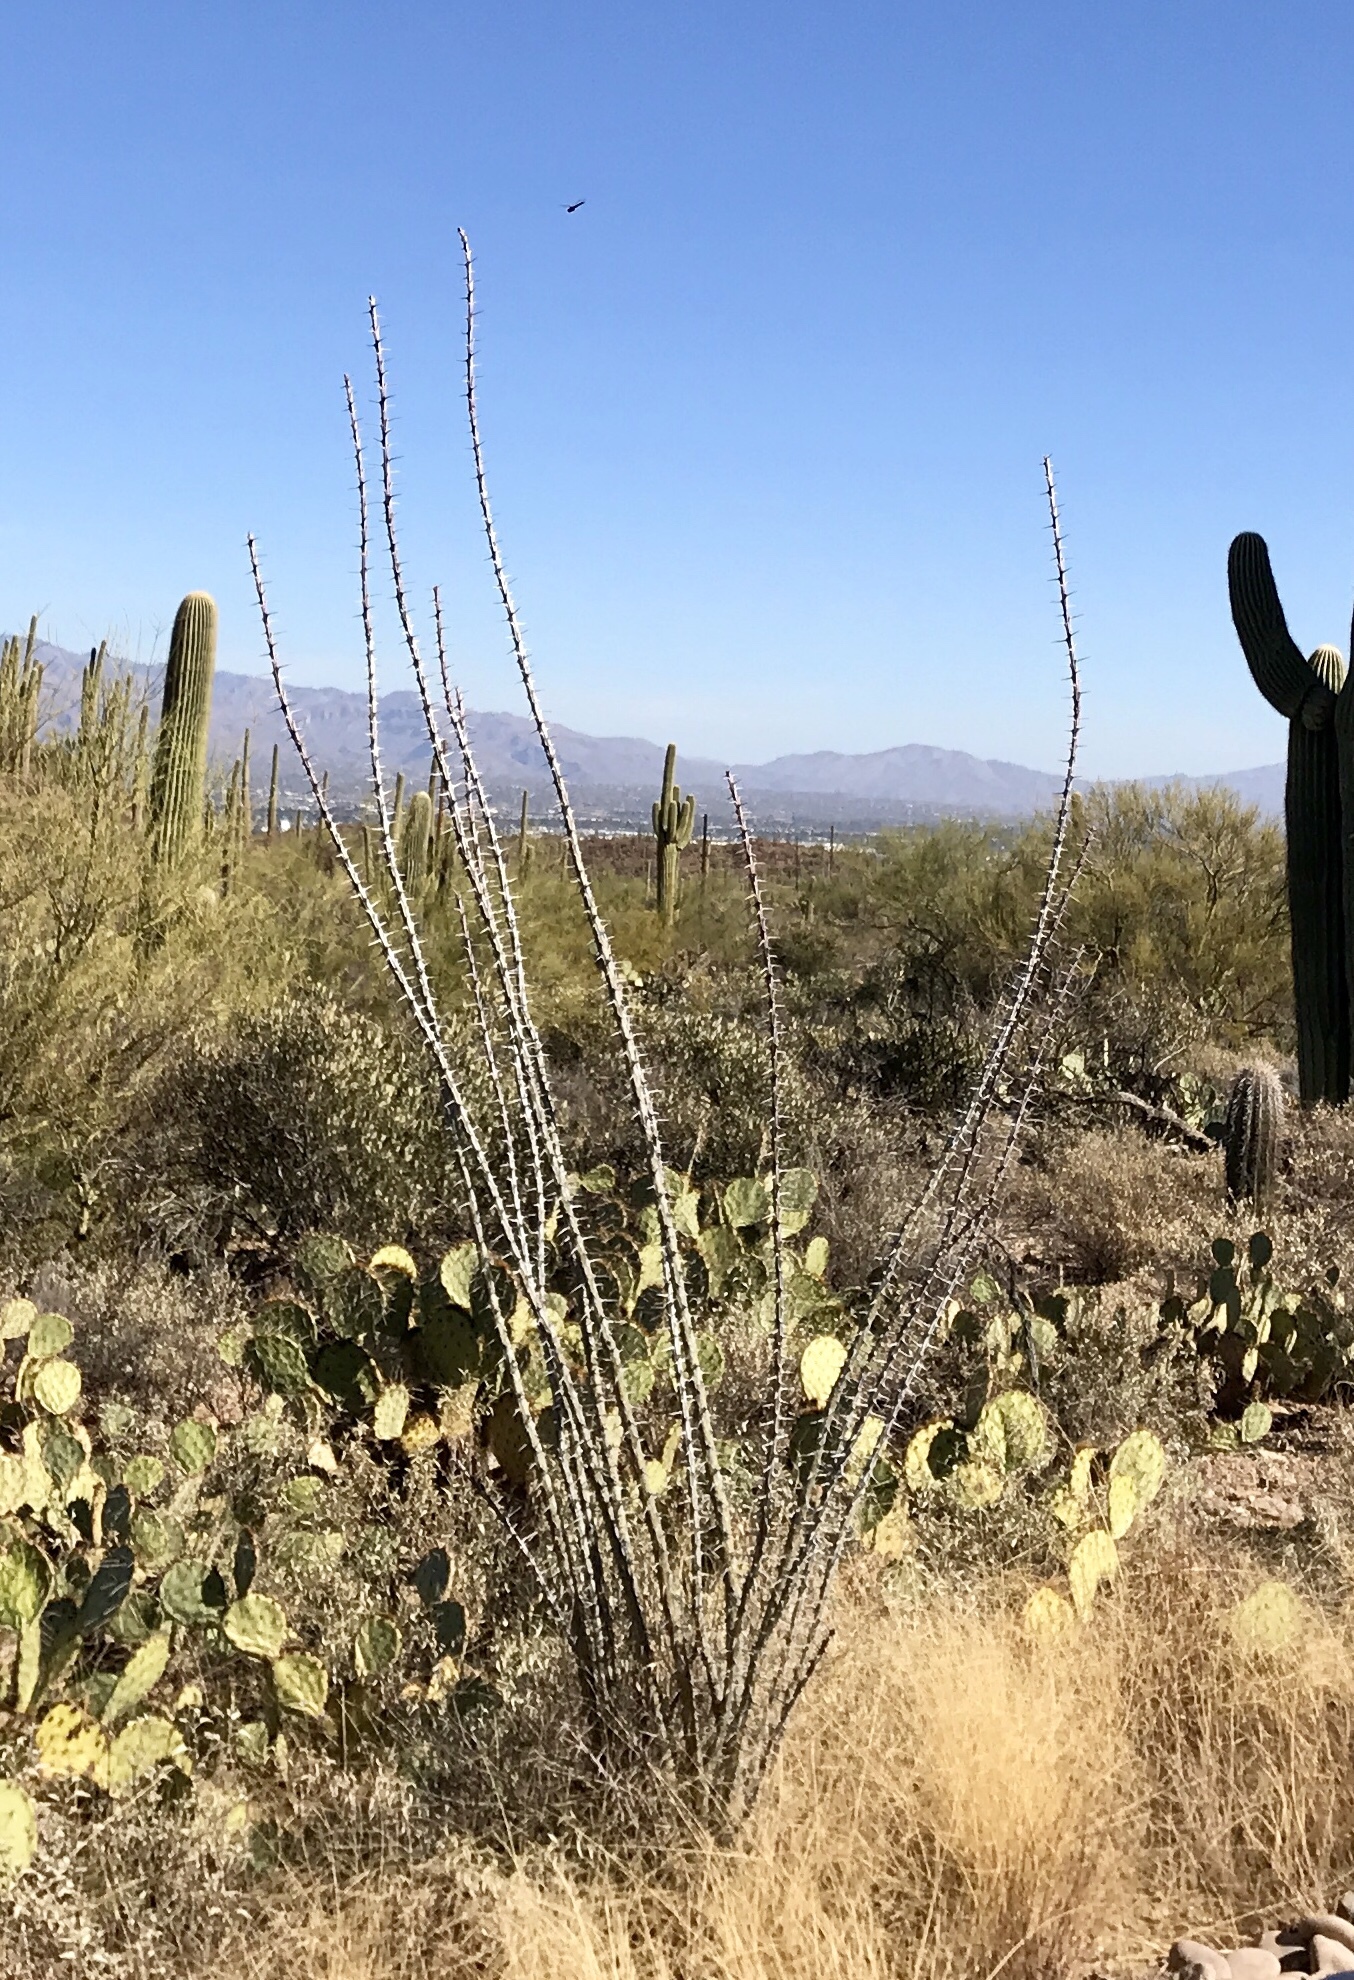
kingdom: Plantae
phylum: Tracheophyta
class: Magnoliopsida
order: Ericales
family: Fouquieriaceae
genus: Fouquieria
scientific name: Fouquieria splendens
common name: Vine-cactus
